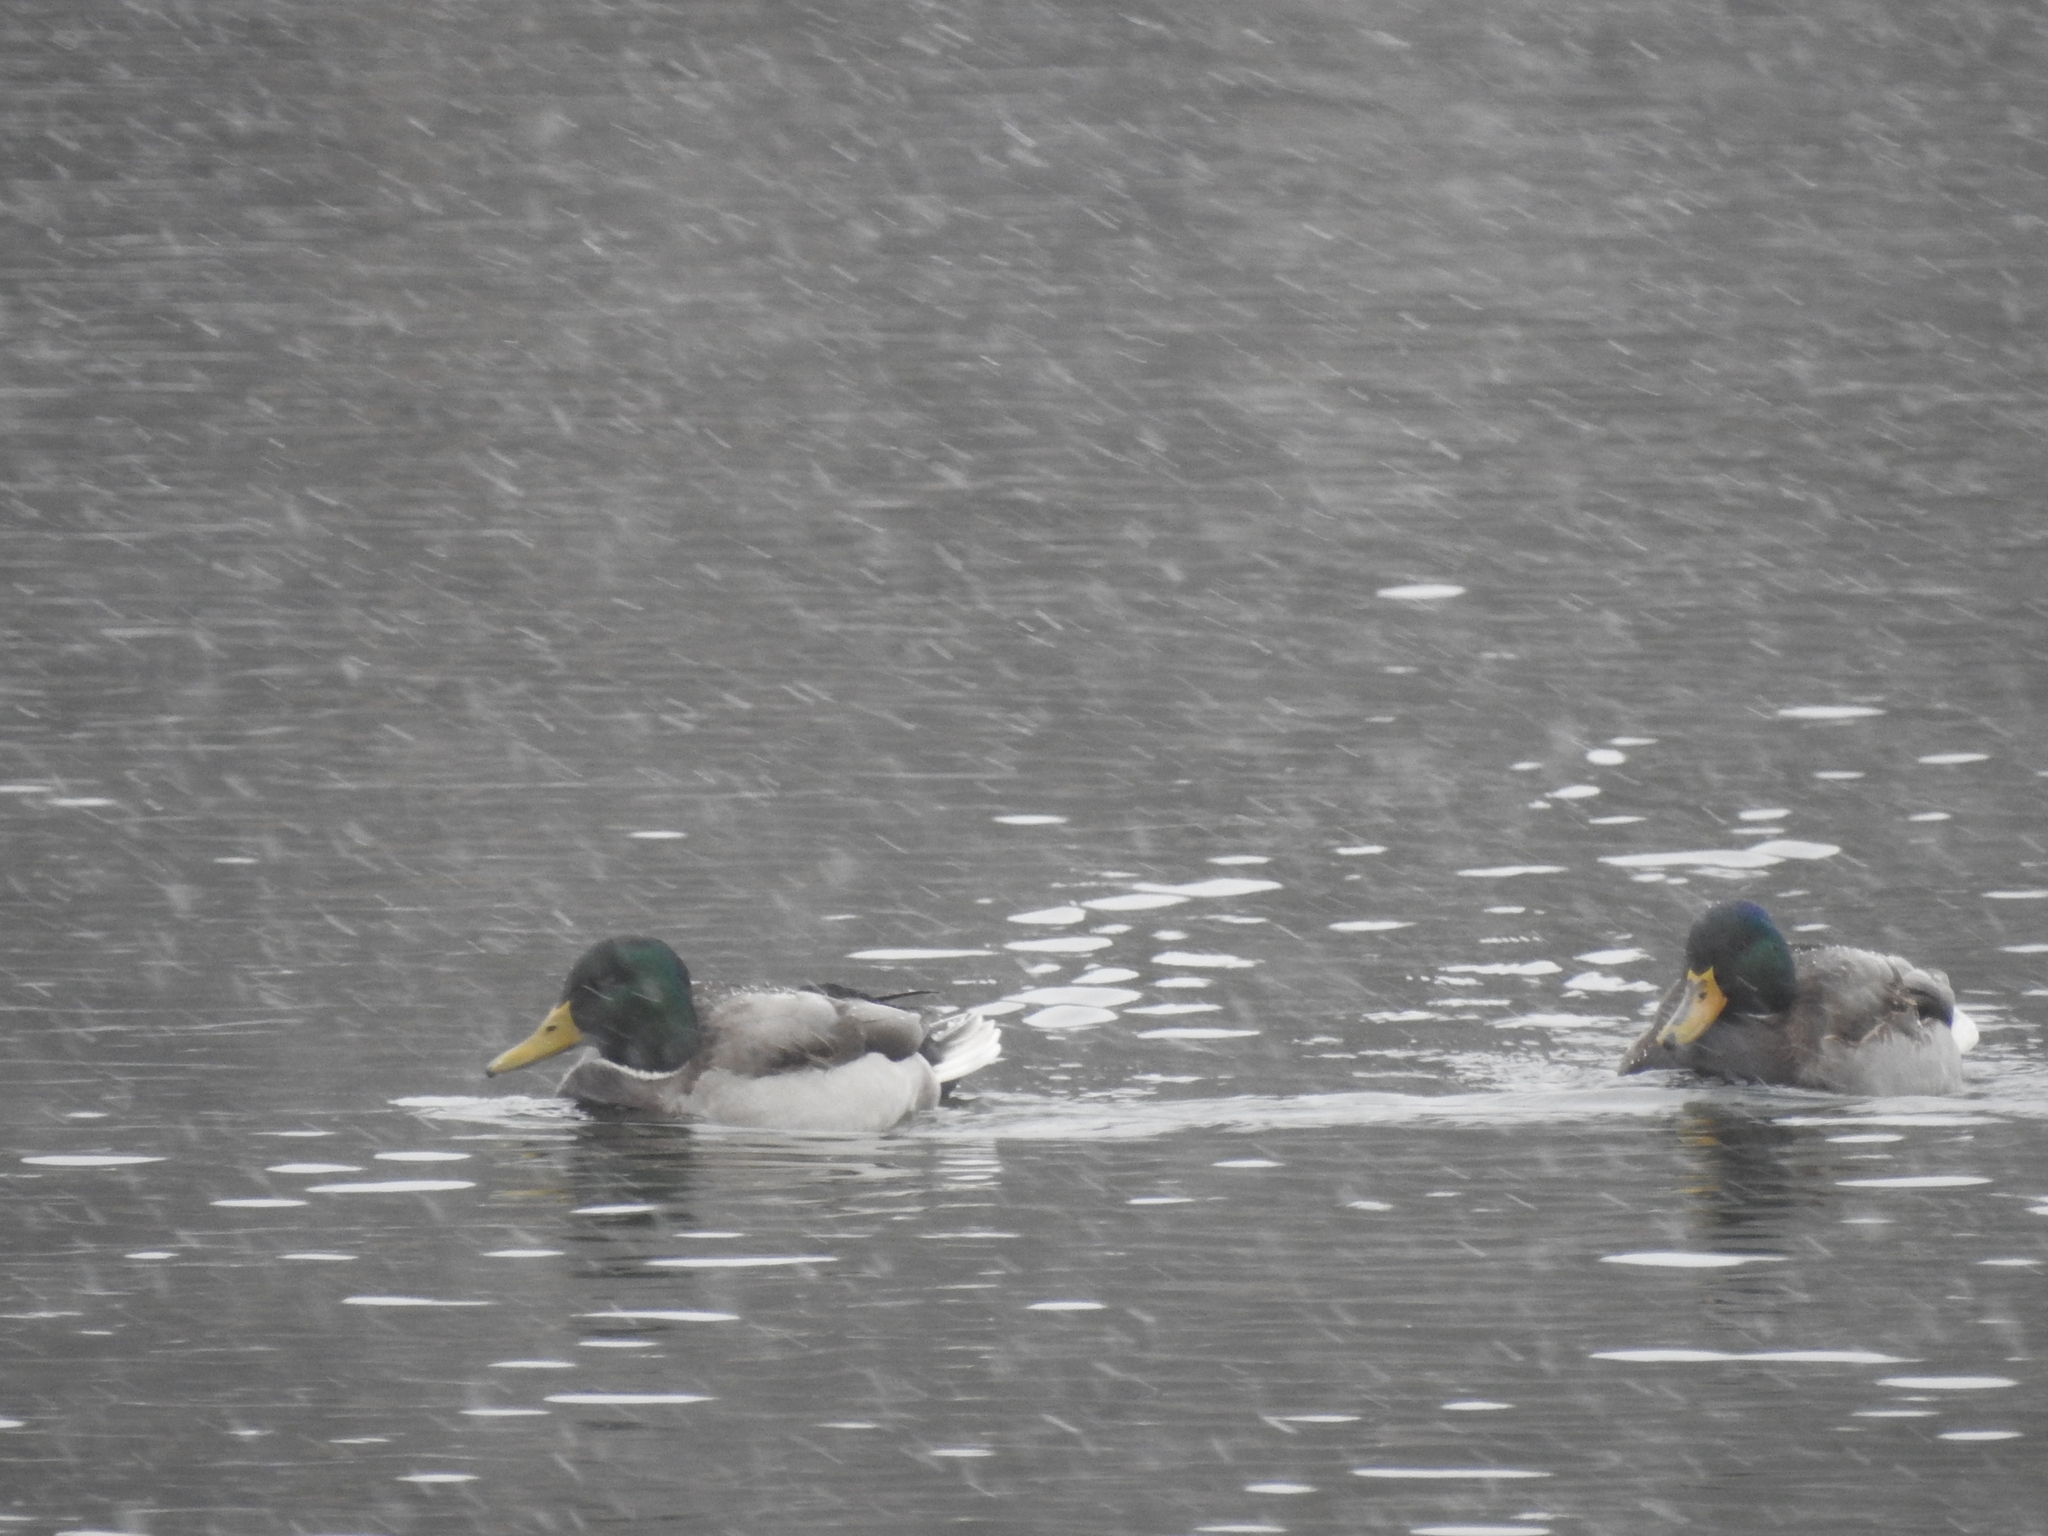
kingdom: Animalia
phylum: Chordata
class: Aves
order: Anseriformes
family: Anatidae
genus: Anas
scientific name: Anas platyrhynchos
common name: Mallard
